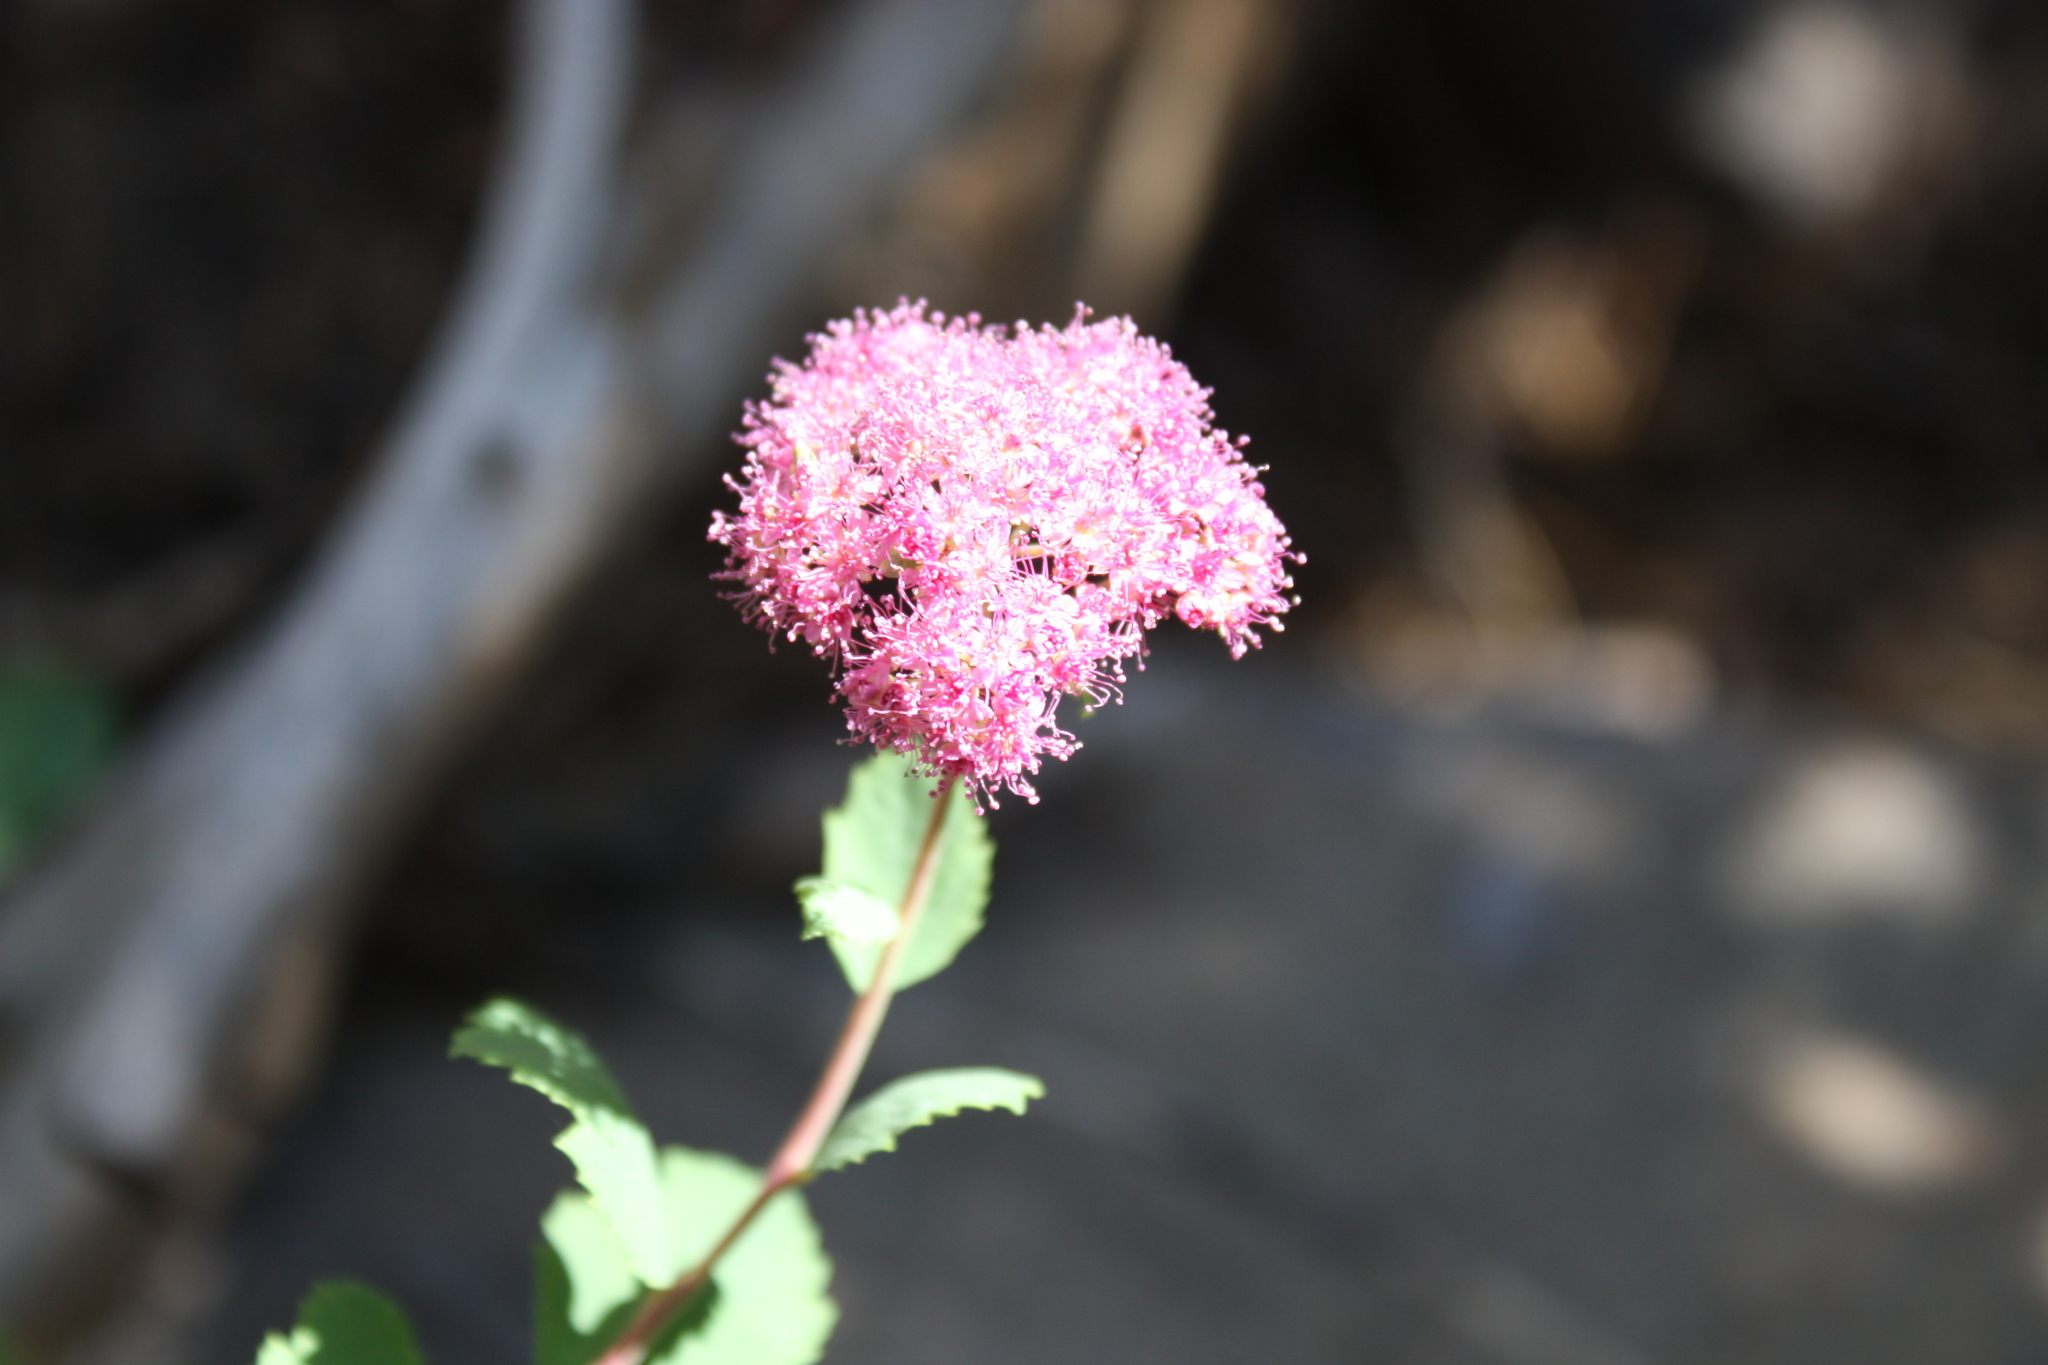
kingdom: Plantae
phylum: Tracheophyta
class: Magnoliopsida
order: Rosales
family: Rosaceae
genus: Spiraea
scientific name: Spiraea splendens
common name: Subalpine meadowsweet
